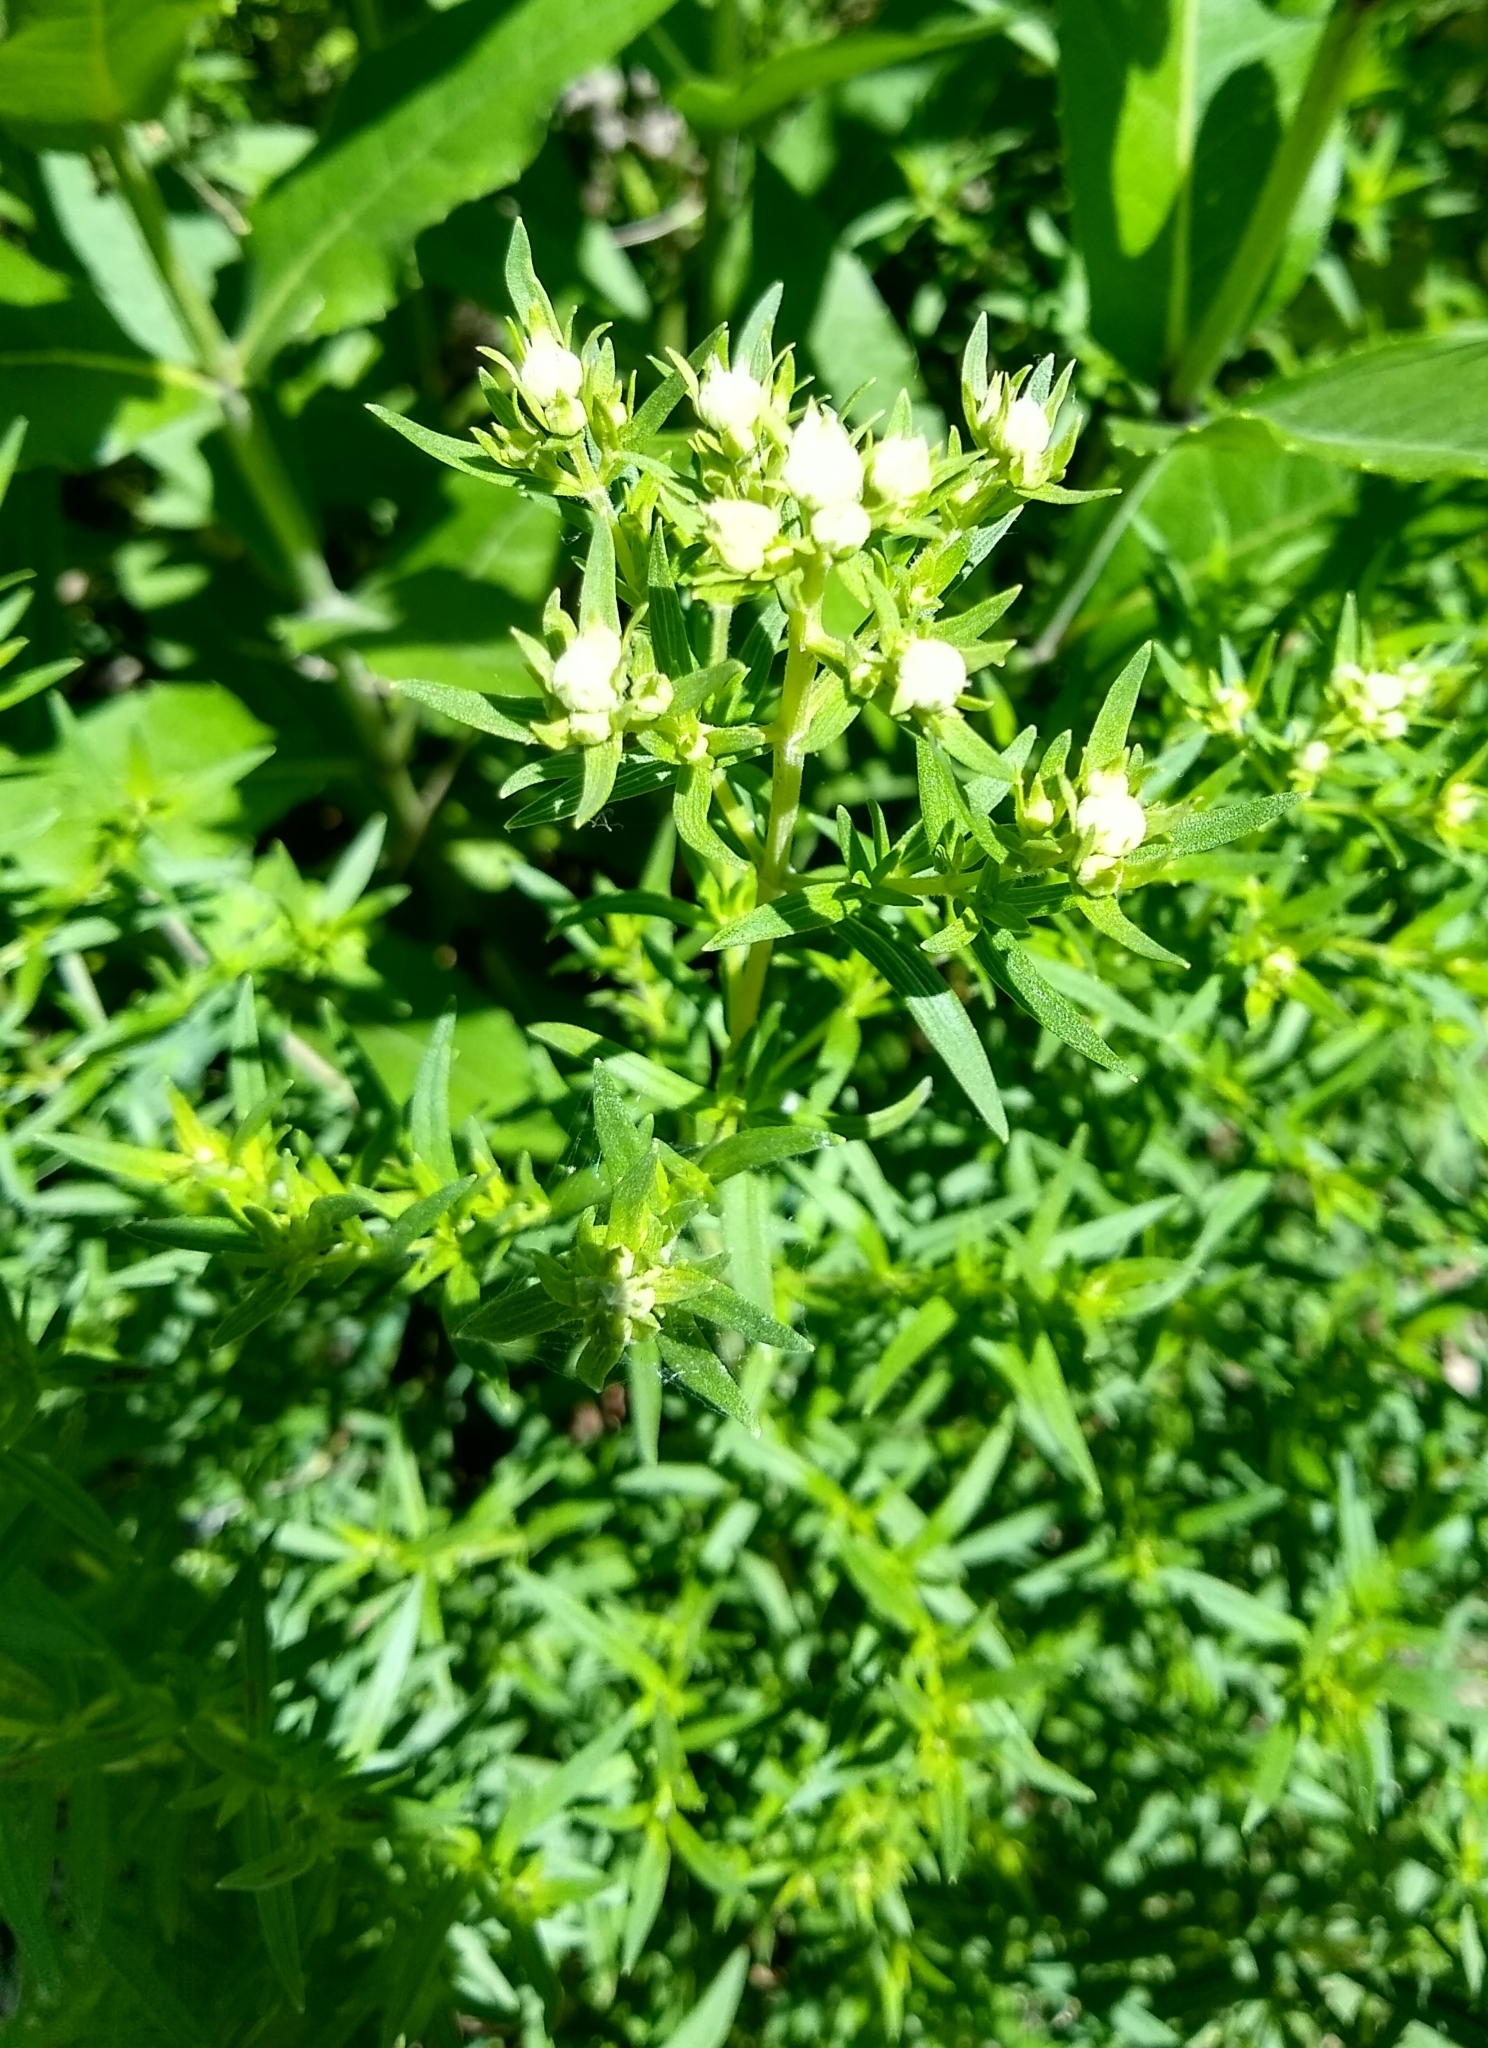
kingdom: Plantae
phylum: Tracheophyta
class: Magnoliopsida
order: Lamiales
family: Lamiaceae
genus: Pycnanthemum
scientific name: Pycnanthemum virginianum
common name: Virginia mountain-mint
